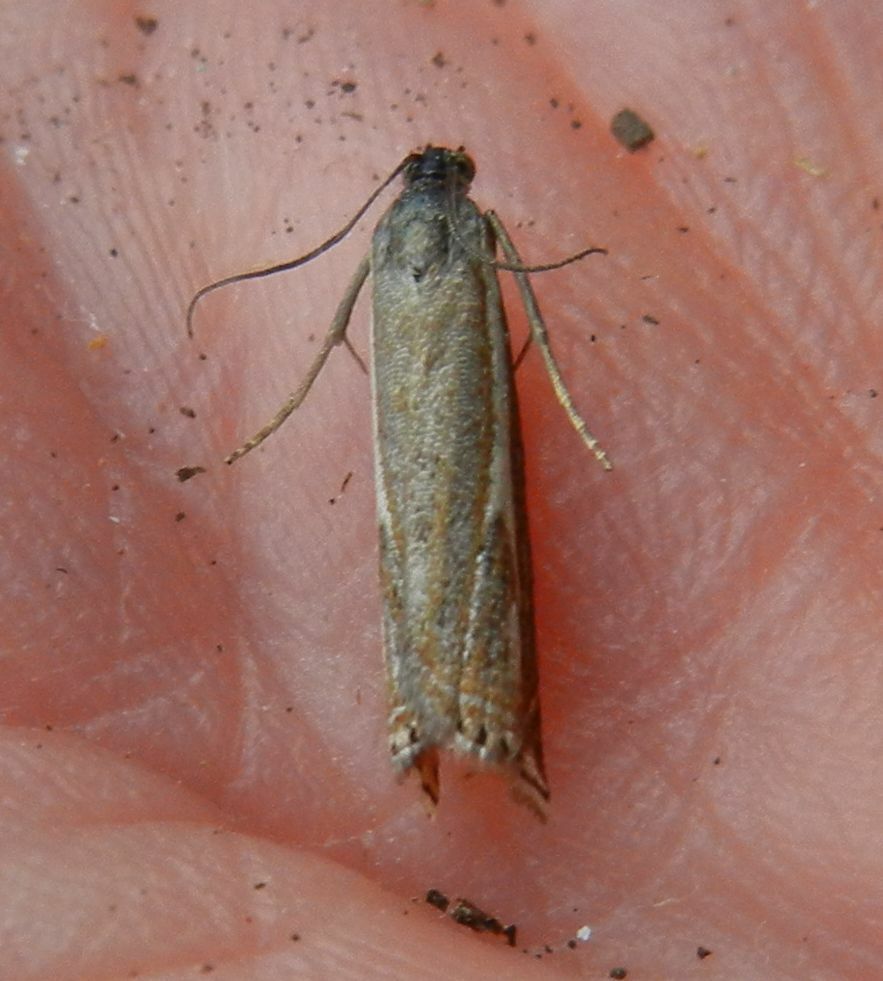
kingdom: Animalia
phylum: Arthropoda
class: Insecta
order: Lepidoptera
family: Crambidae
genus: Crambus
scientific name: Crambus nemorella
